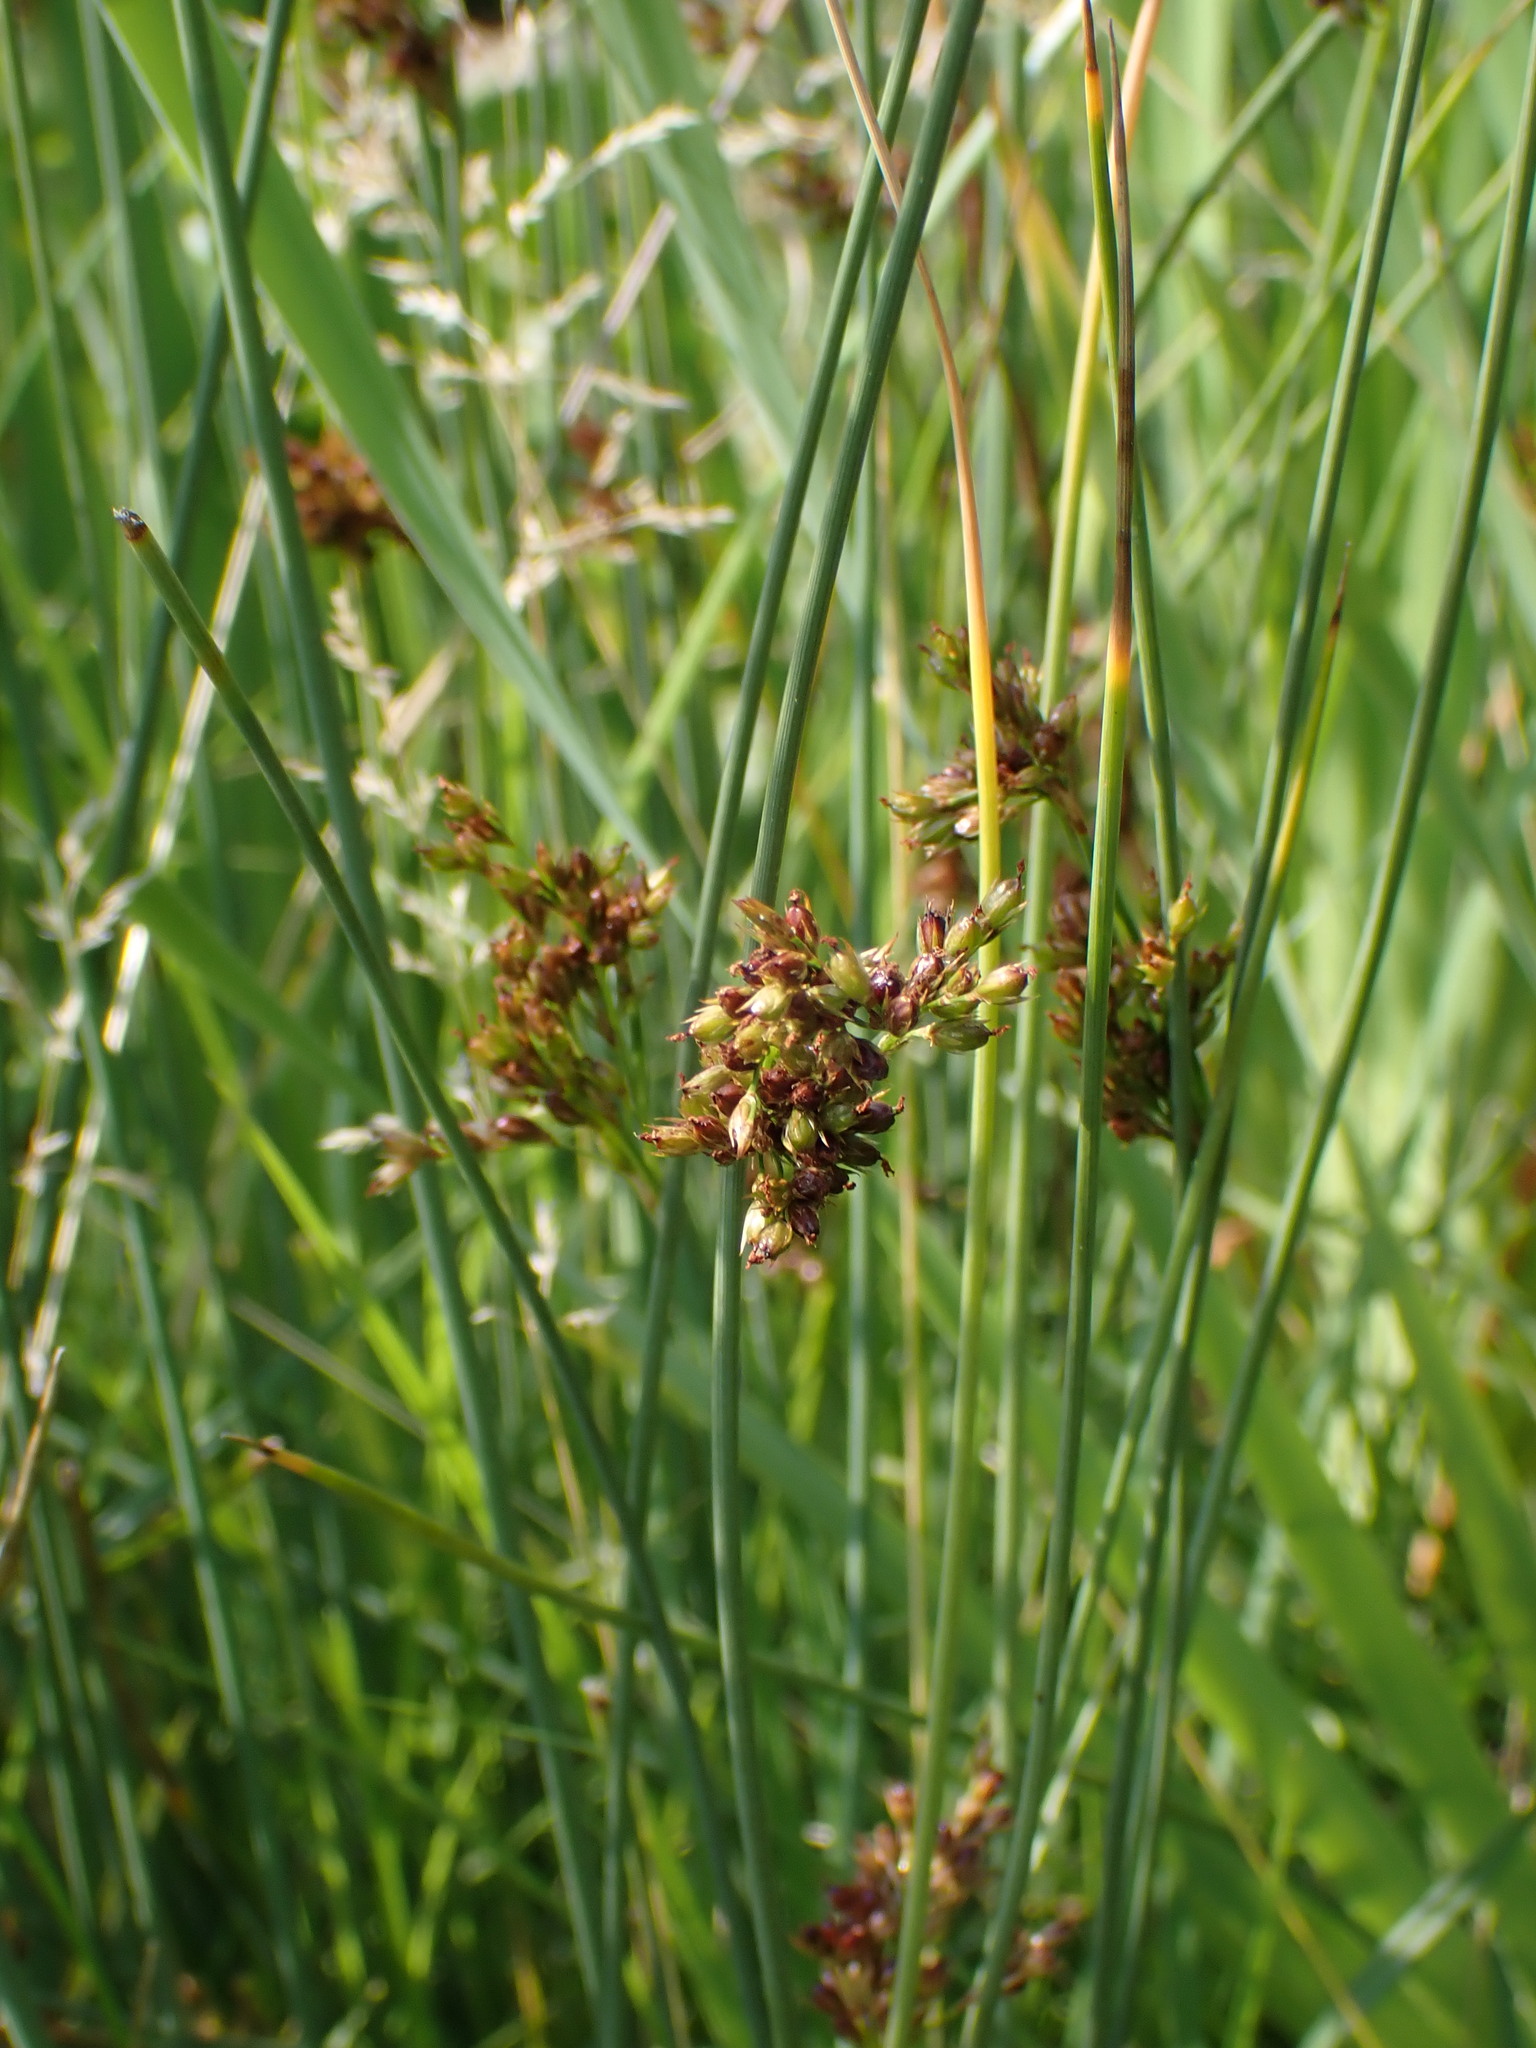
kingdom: Plantae
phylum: Tracheophyta
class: Liliopsida
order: Poales
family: Juncaceae
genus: Juncus
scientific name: Juncus inflexus
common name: Hard rush
